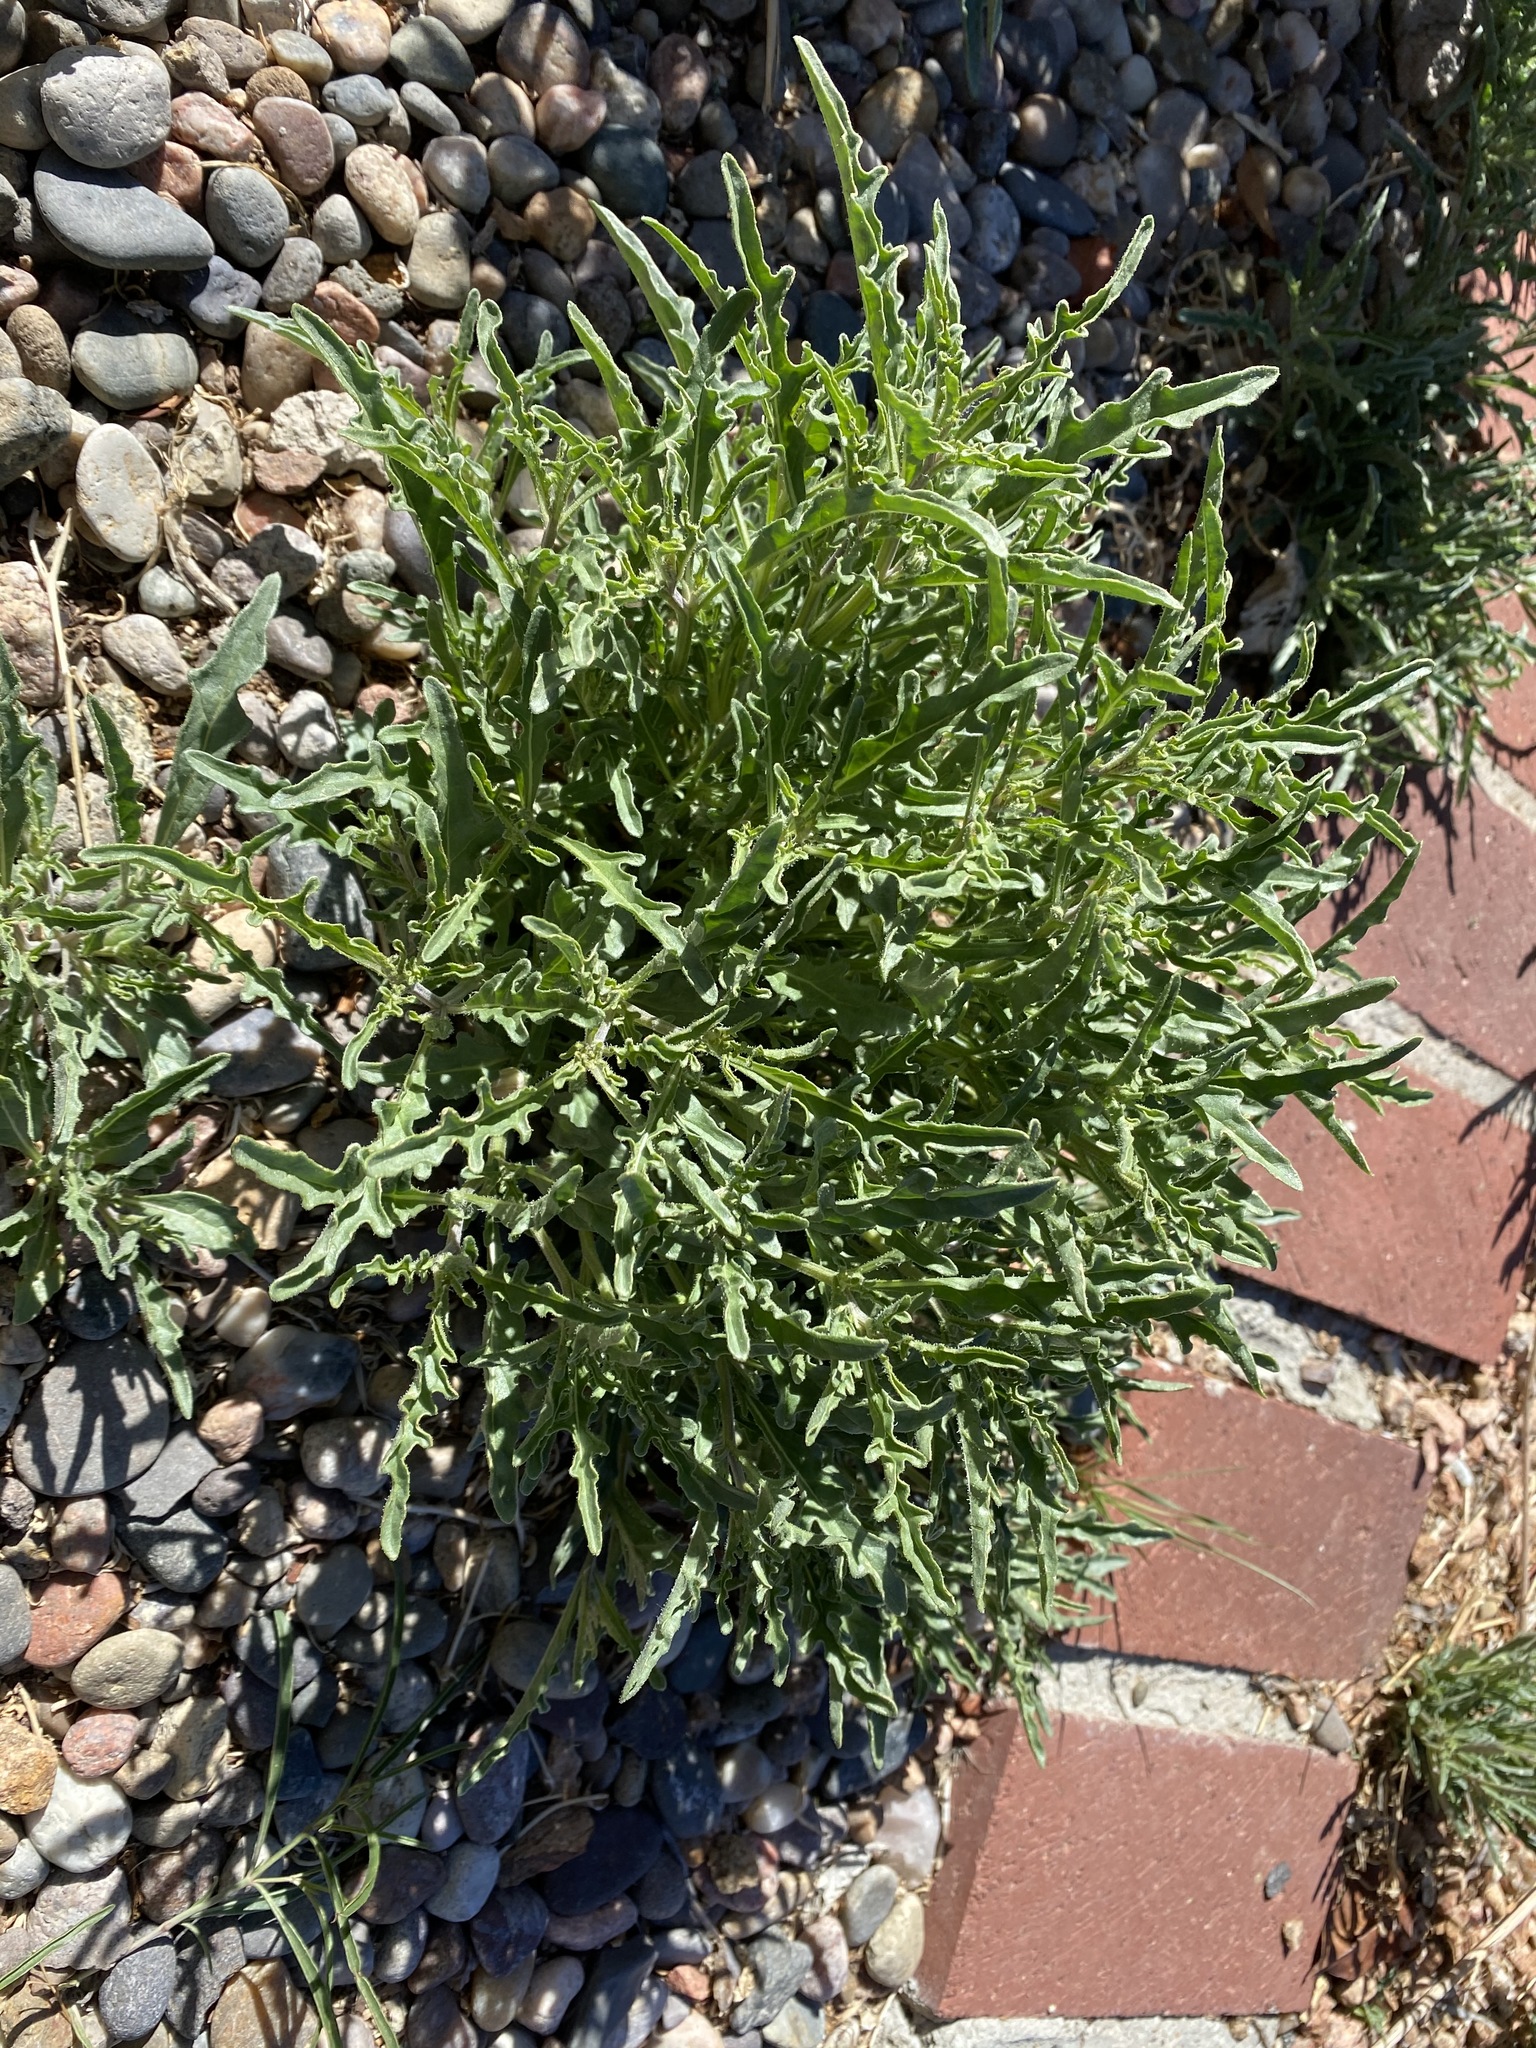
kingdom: Plantae
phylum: Tracheophyta
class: Magnoliopsida
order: Solanales
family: Solanaceae
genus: Chamaesaracha
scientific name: Chamaesaracha coronopus
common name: Smooth chamaesaracha
